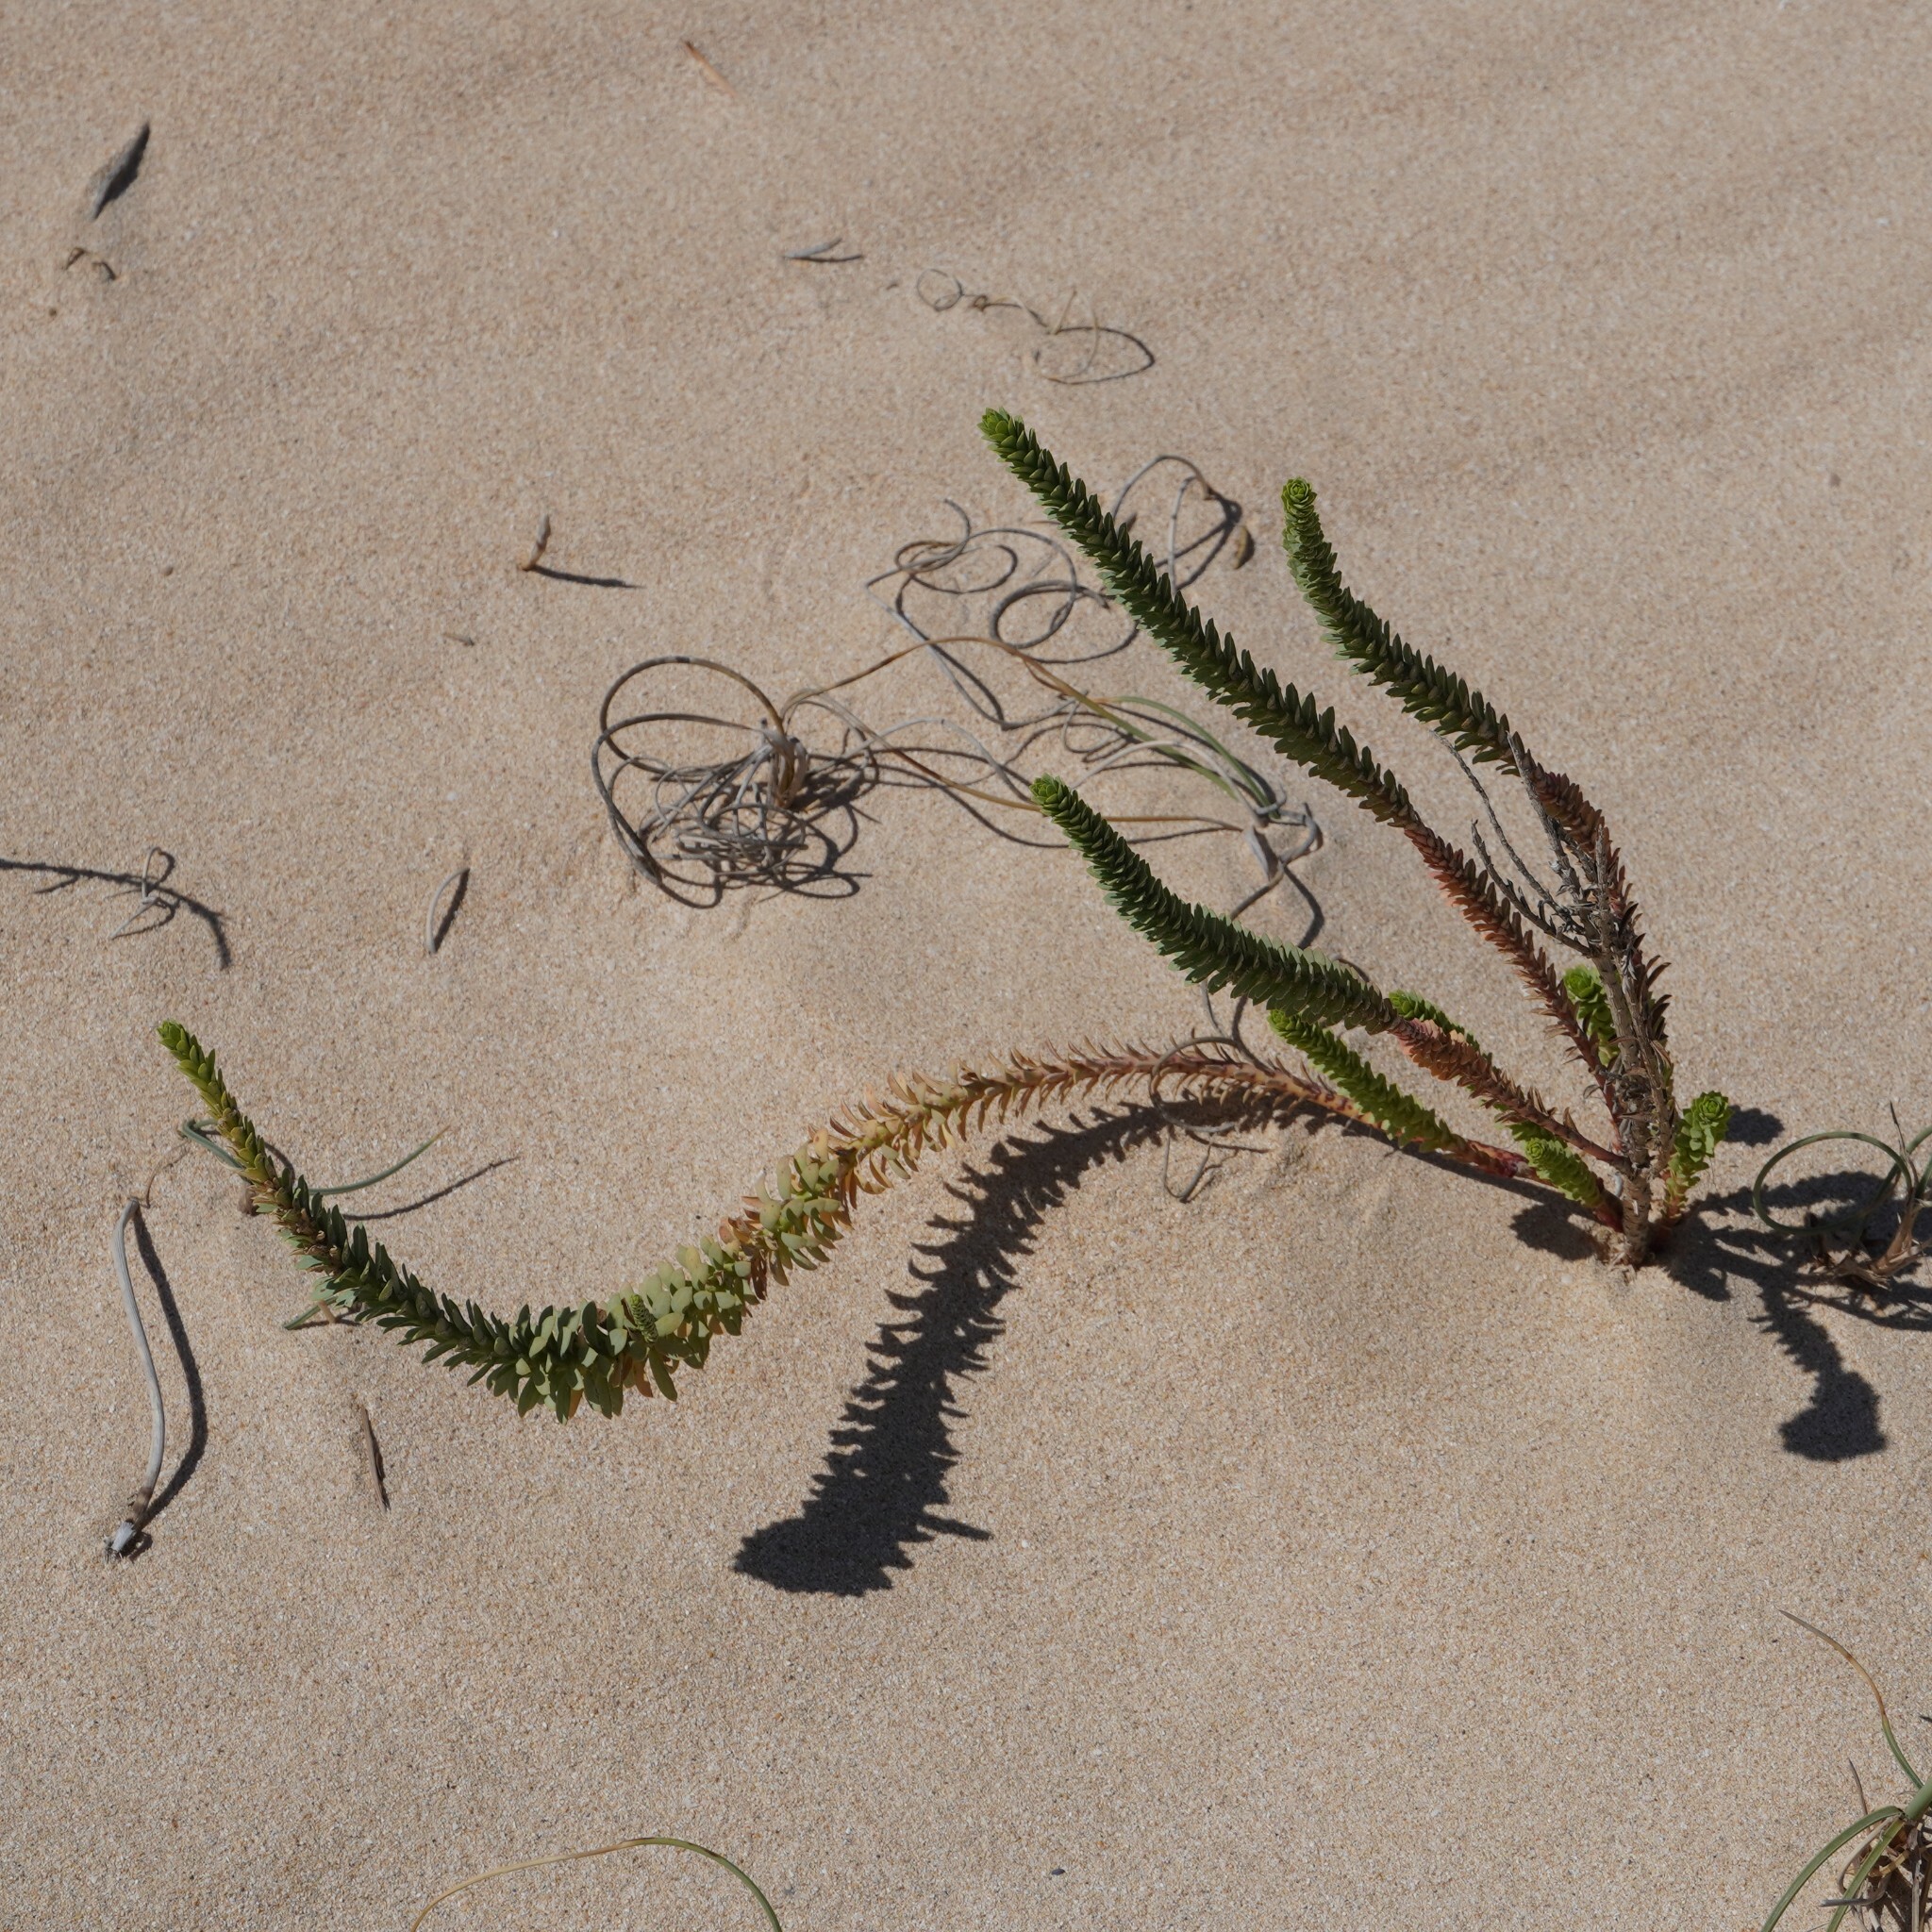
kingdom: Plantae
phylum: Tracheophyta
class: Magnoliopsida
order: Malpighiales
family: Euphorbiaceae
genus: Euphorbia
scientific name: Euphorbia paralias
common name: Sea spurge
